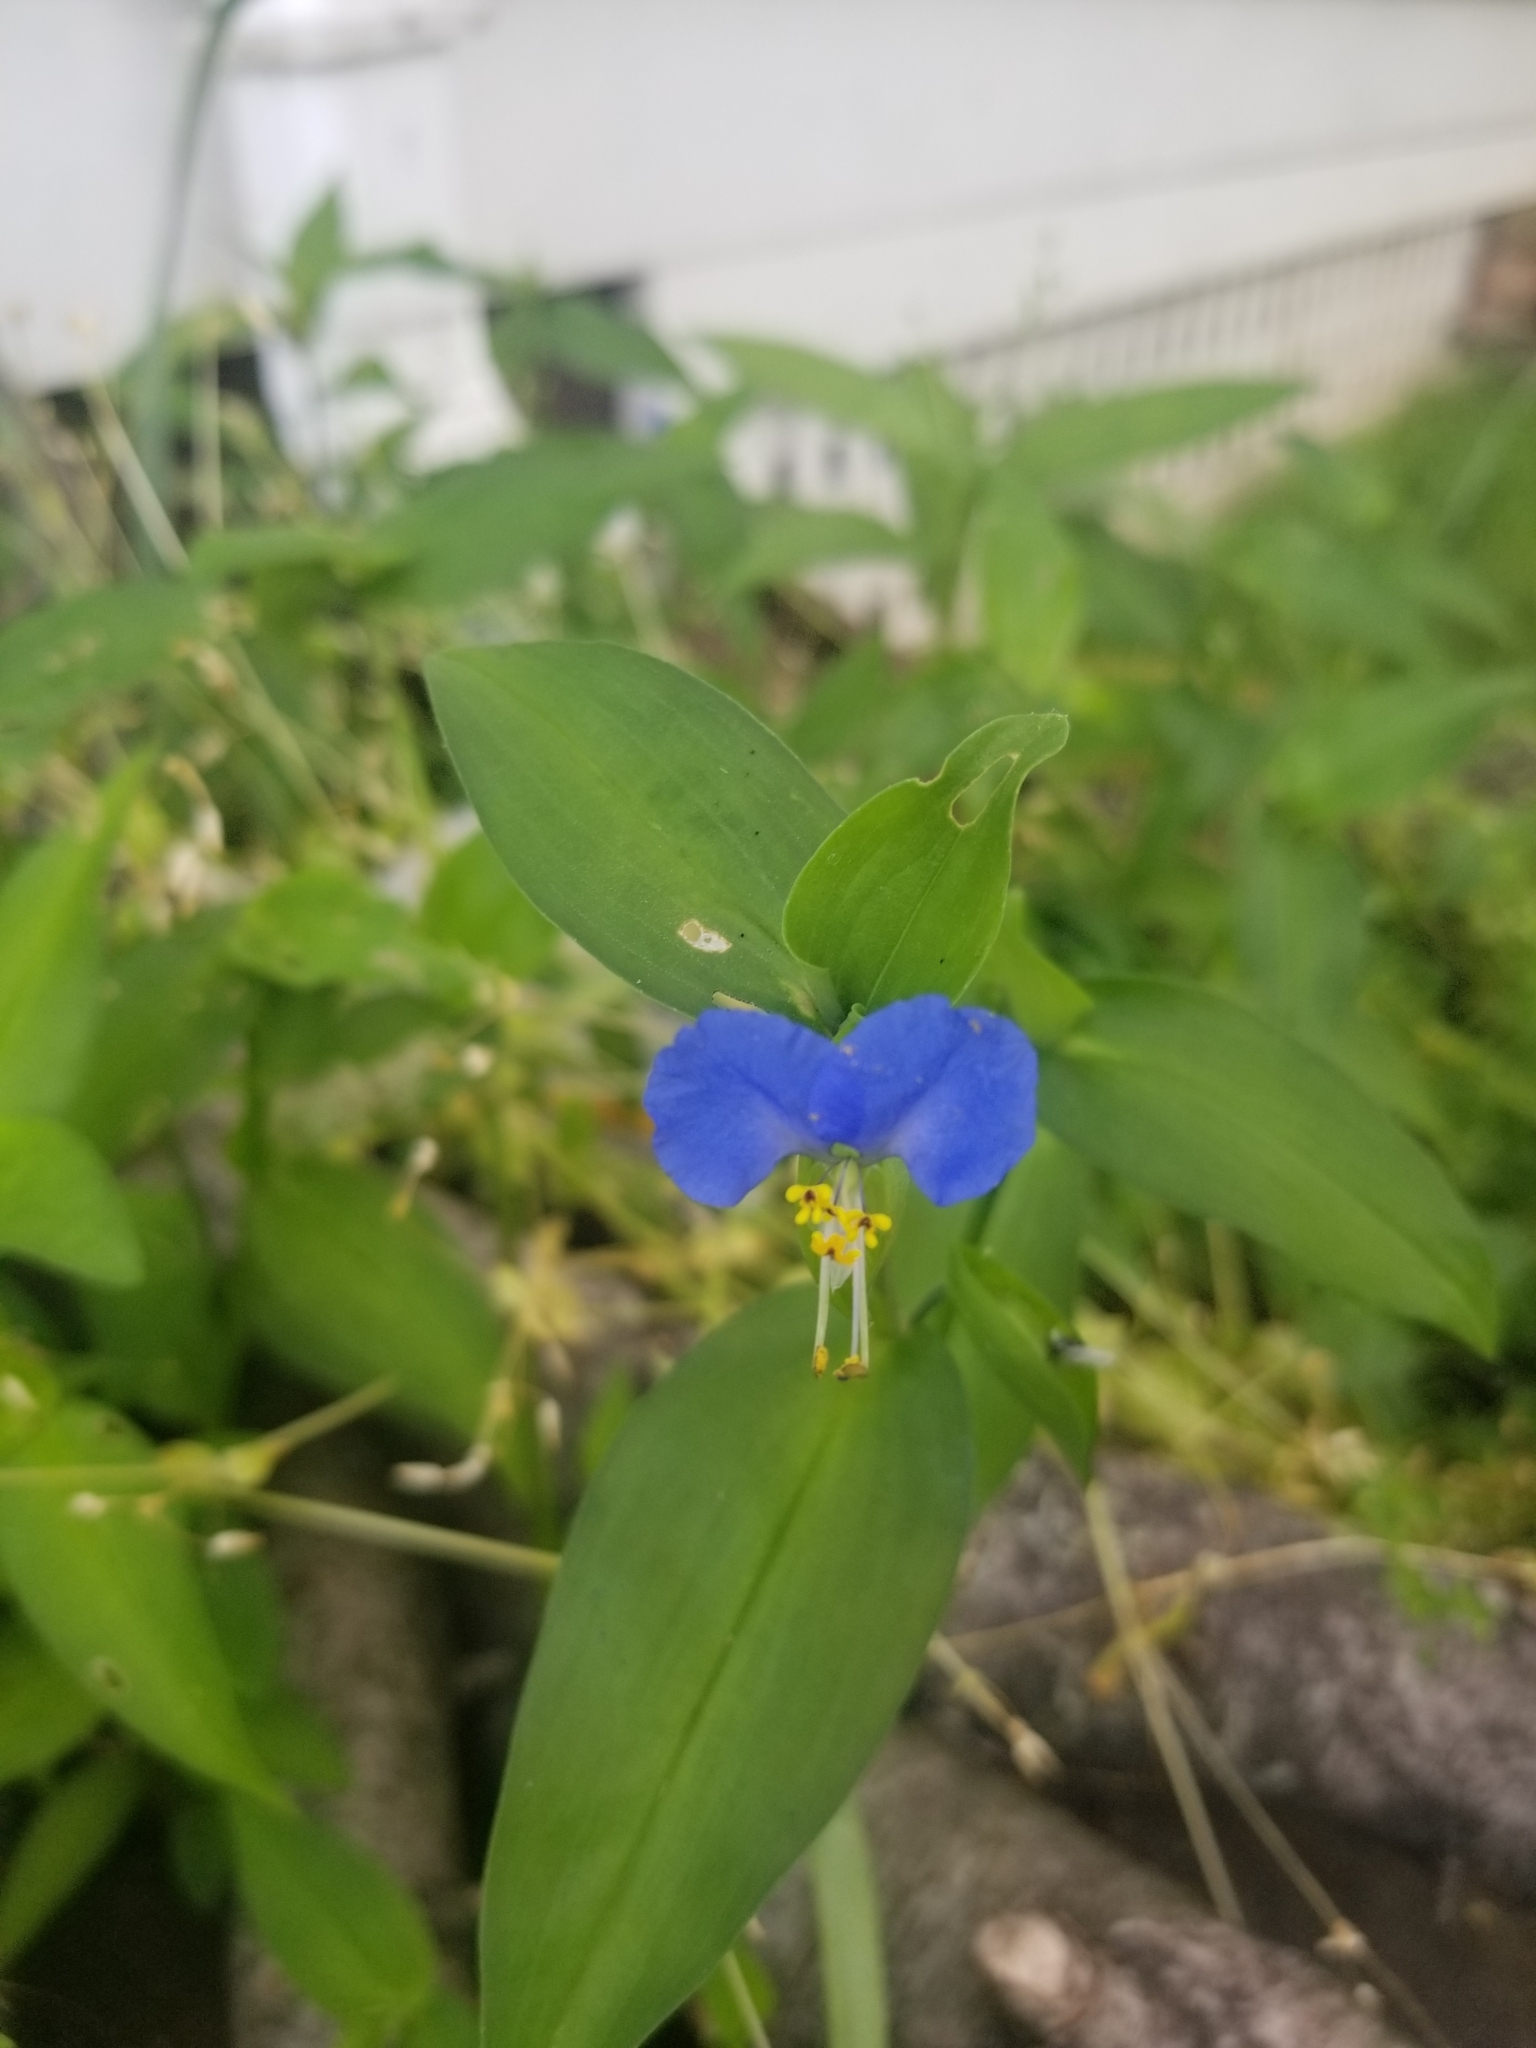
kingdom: Plantae
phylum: Tracheophyta
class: Liliopsida
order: Commelinales
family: Commelinaceae
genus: Commelina
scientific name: Commelina communis
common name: Asiatic dayflower
